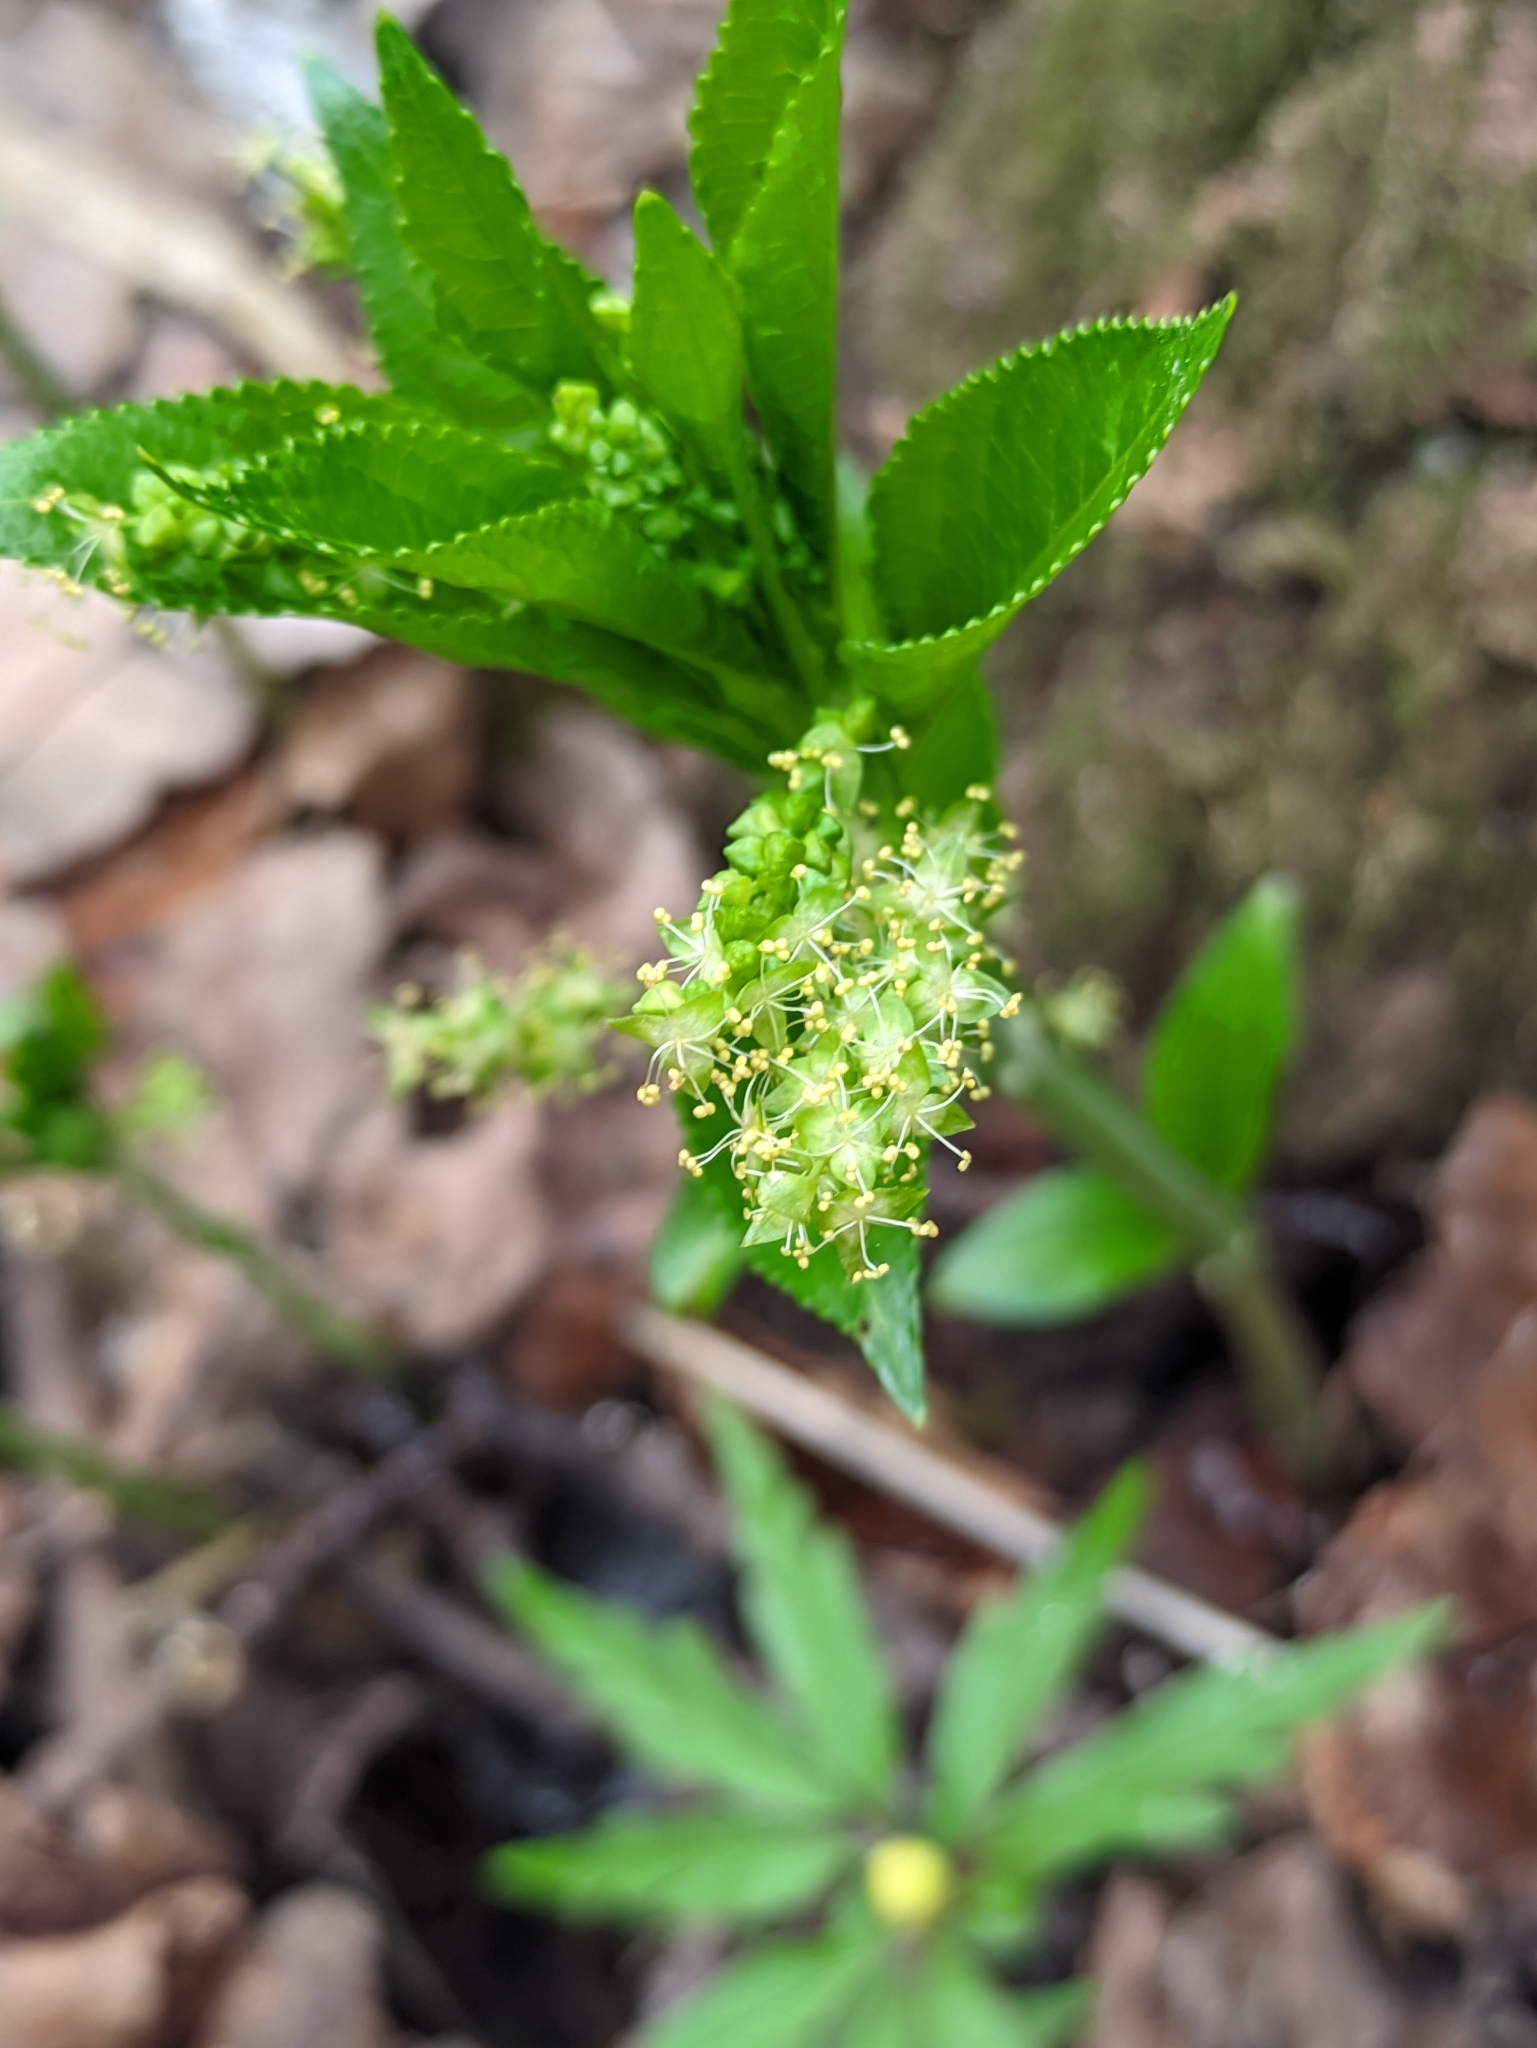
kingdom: Plantae
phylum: Tracheophyta
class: Magnoliopsida
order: Malpighiales
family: Euphorbiaceae
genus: Mercurialis
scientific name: Mercurialis perennis
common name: Dog mercury
